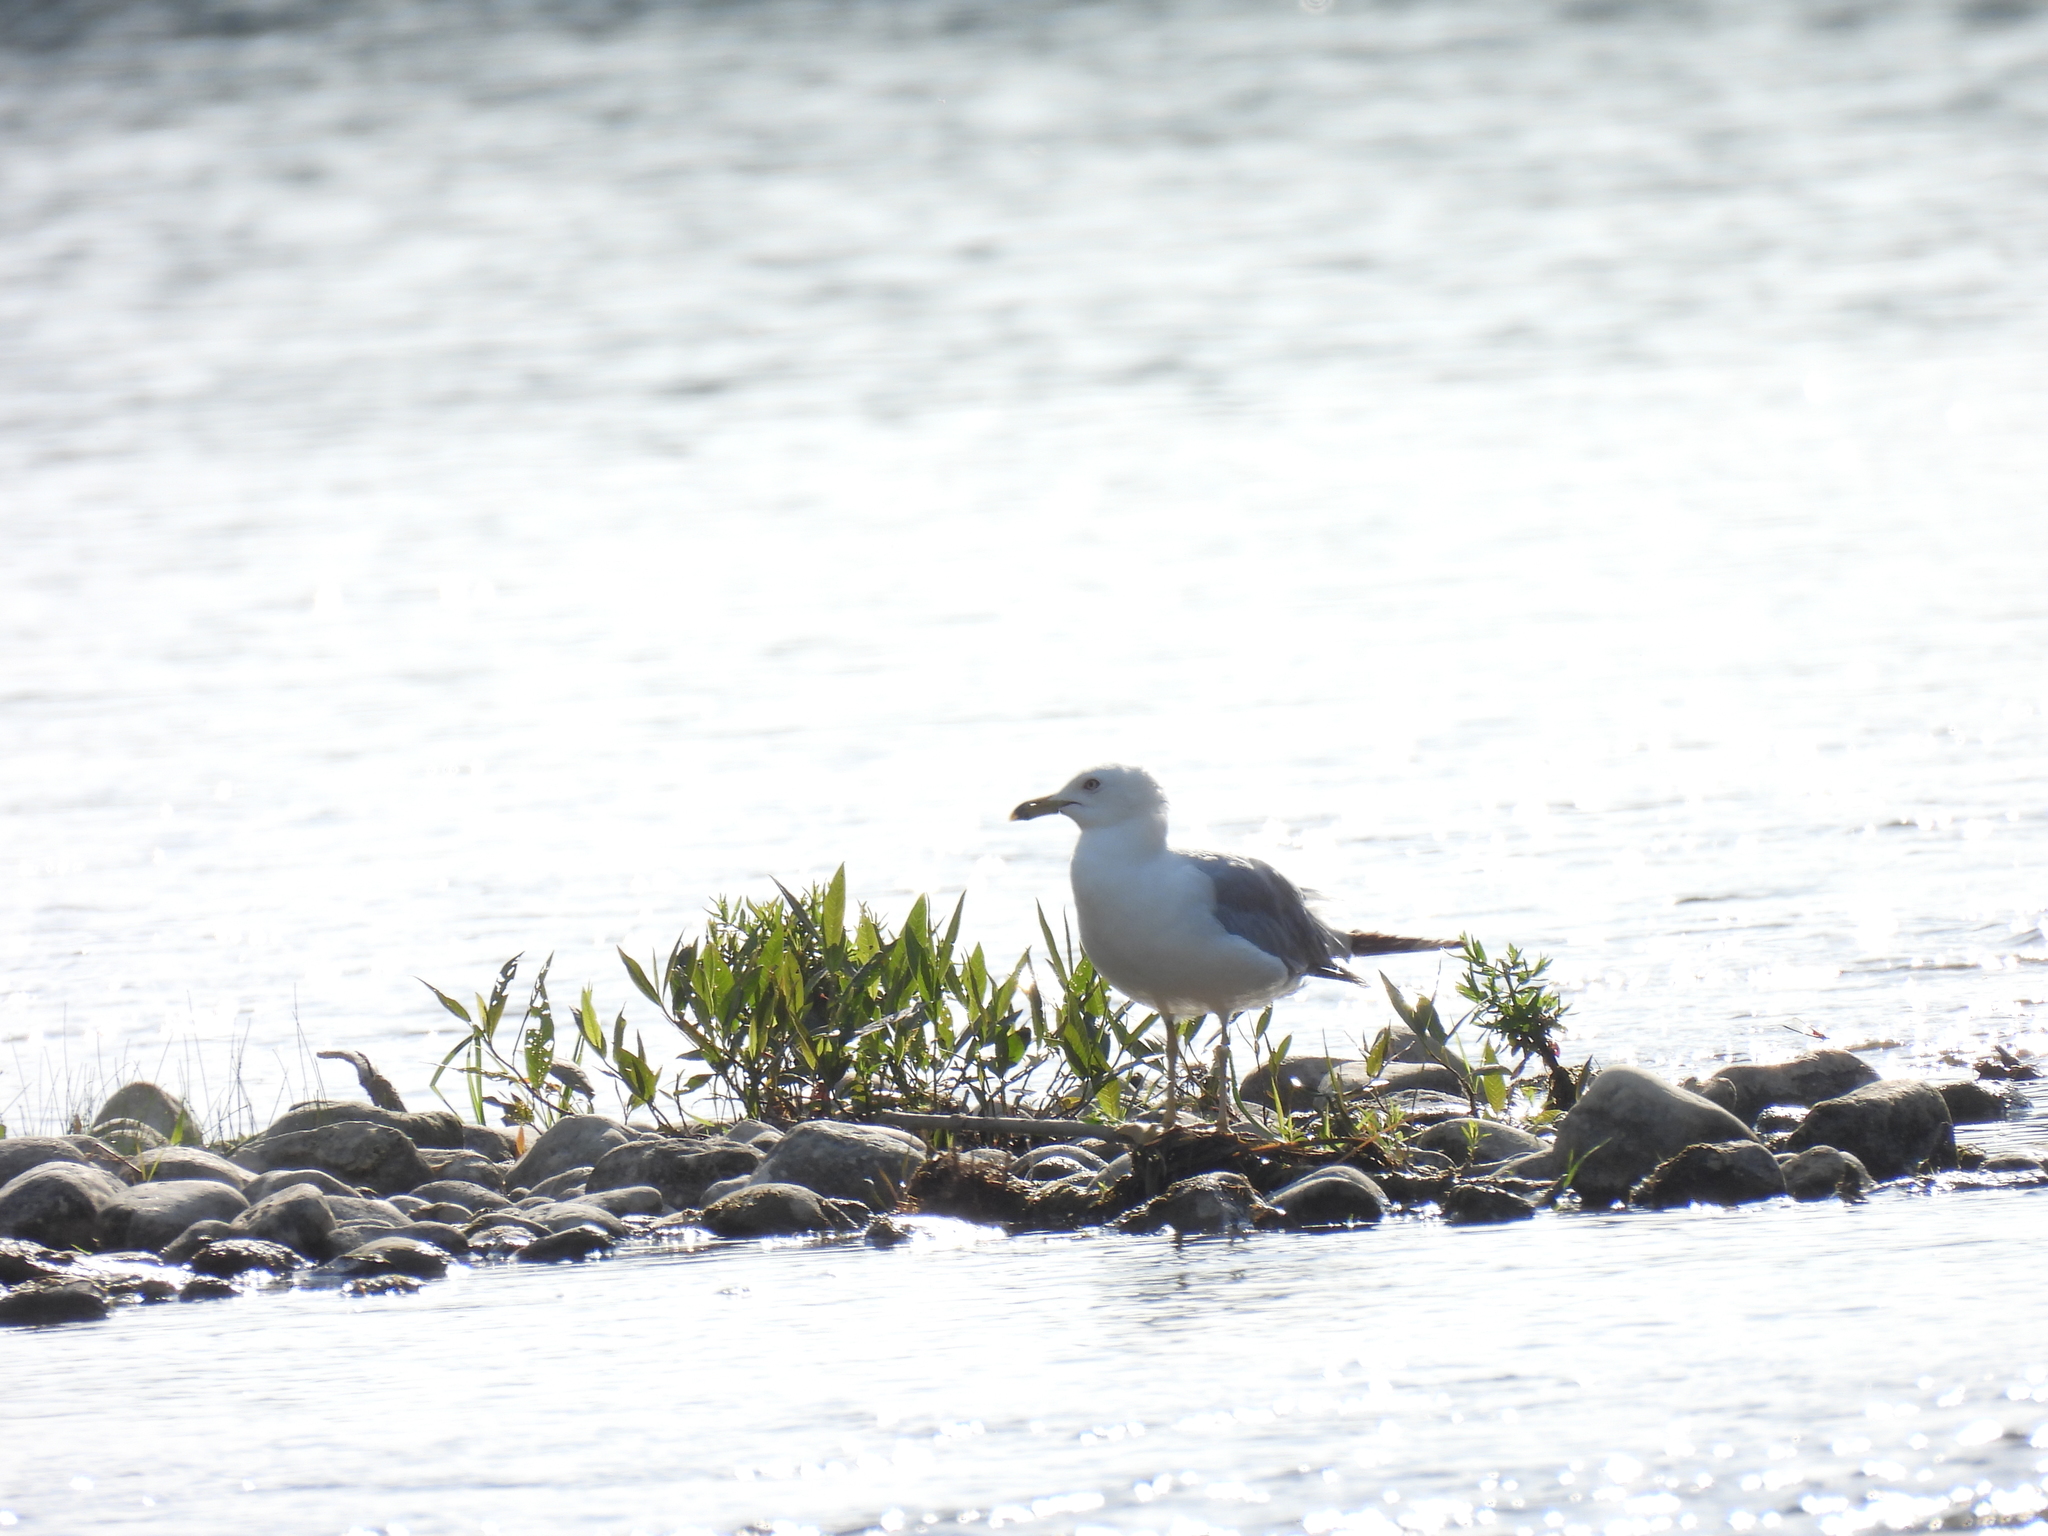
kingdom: Animalia
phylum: Chordata
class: Aves
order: Charadriiformes
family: Laridae
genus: Larus
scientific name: Larus delawarensis
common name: Ring-billed gull
